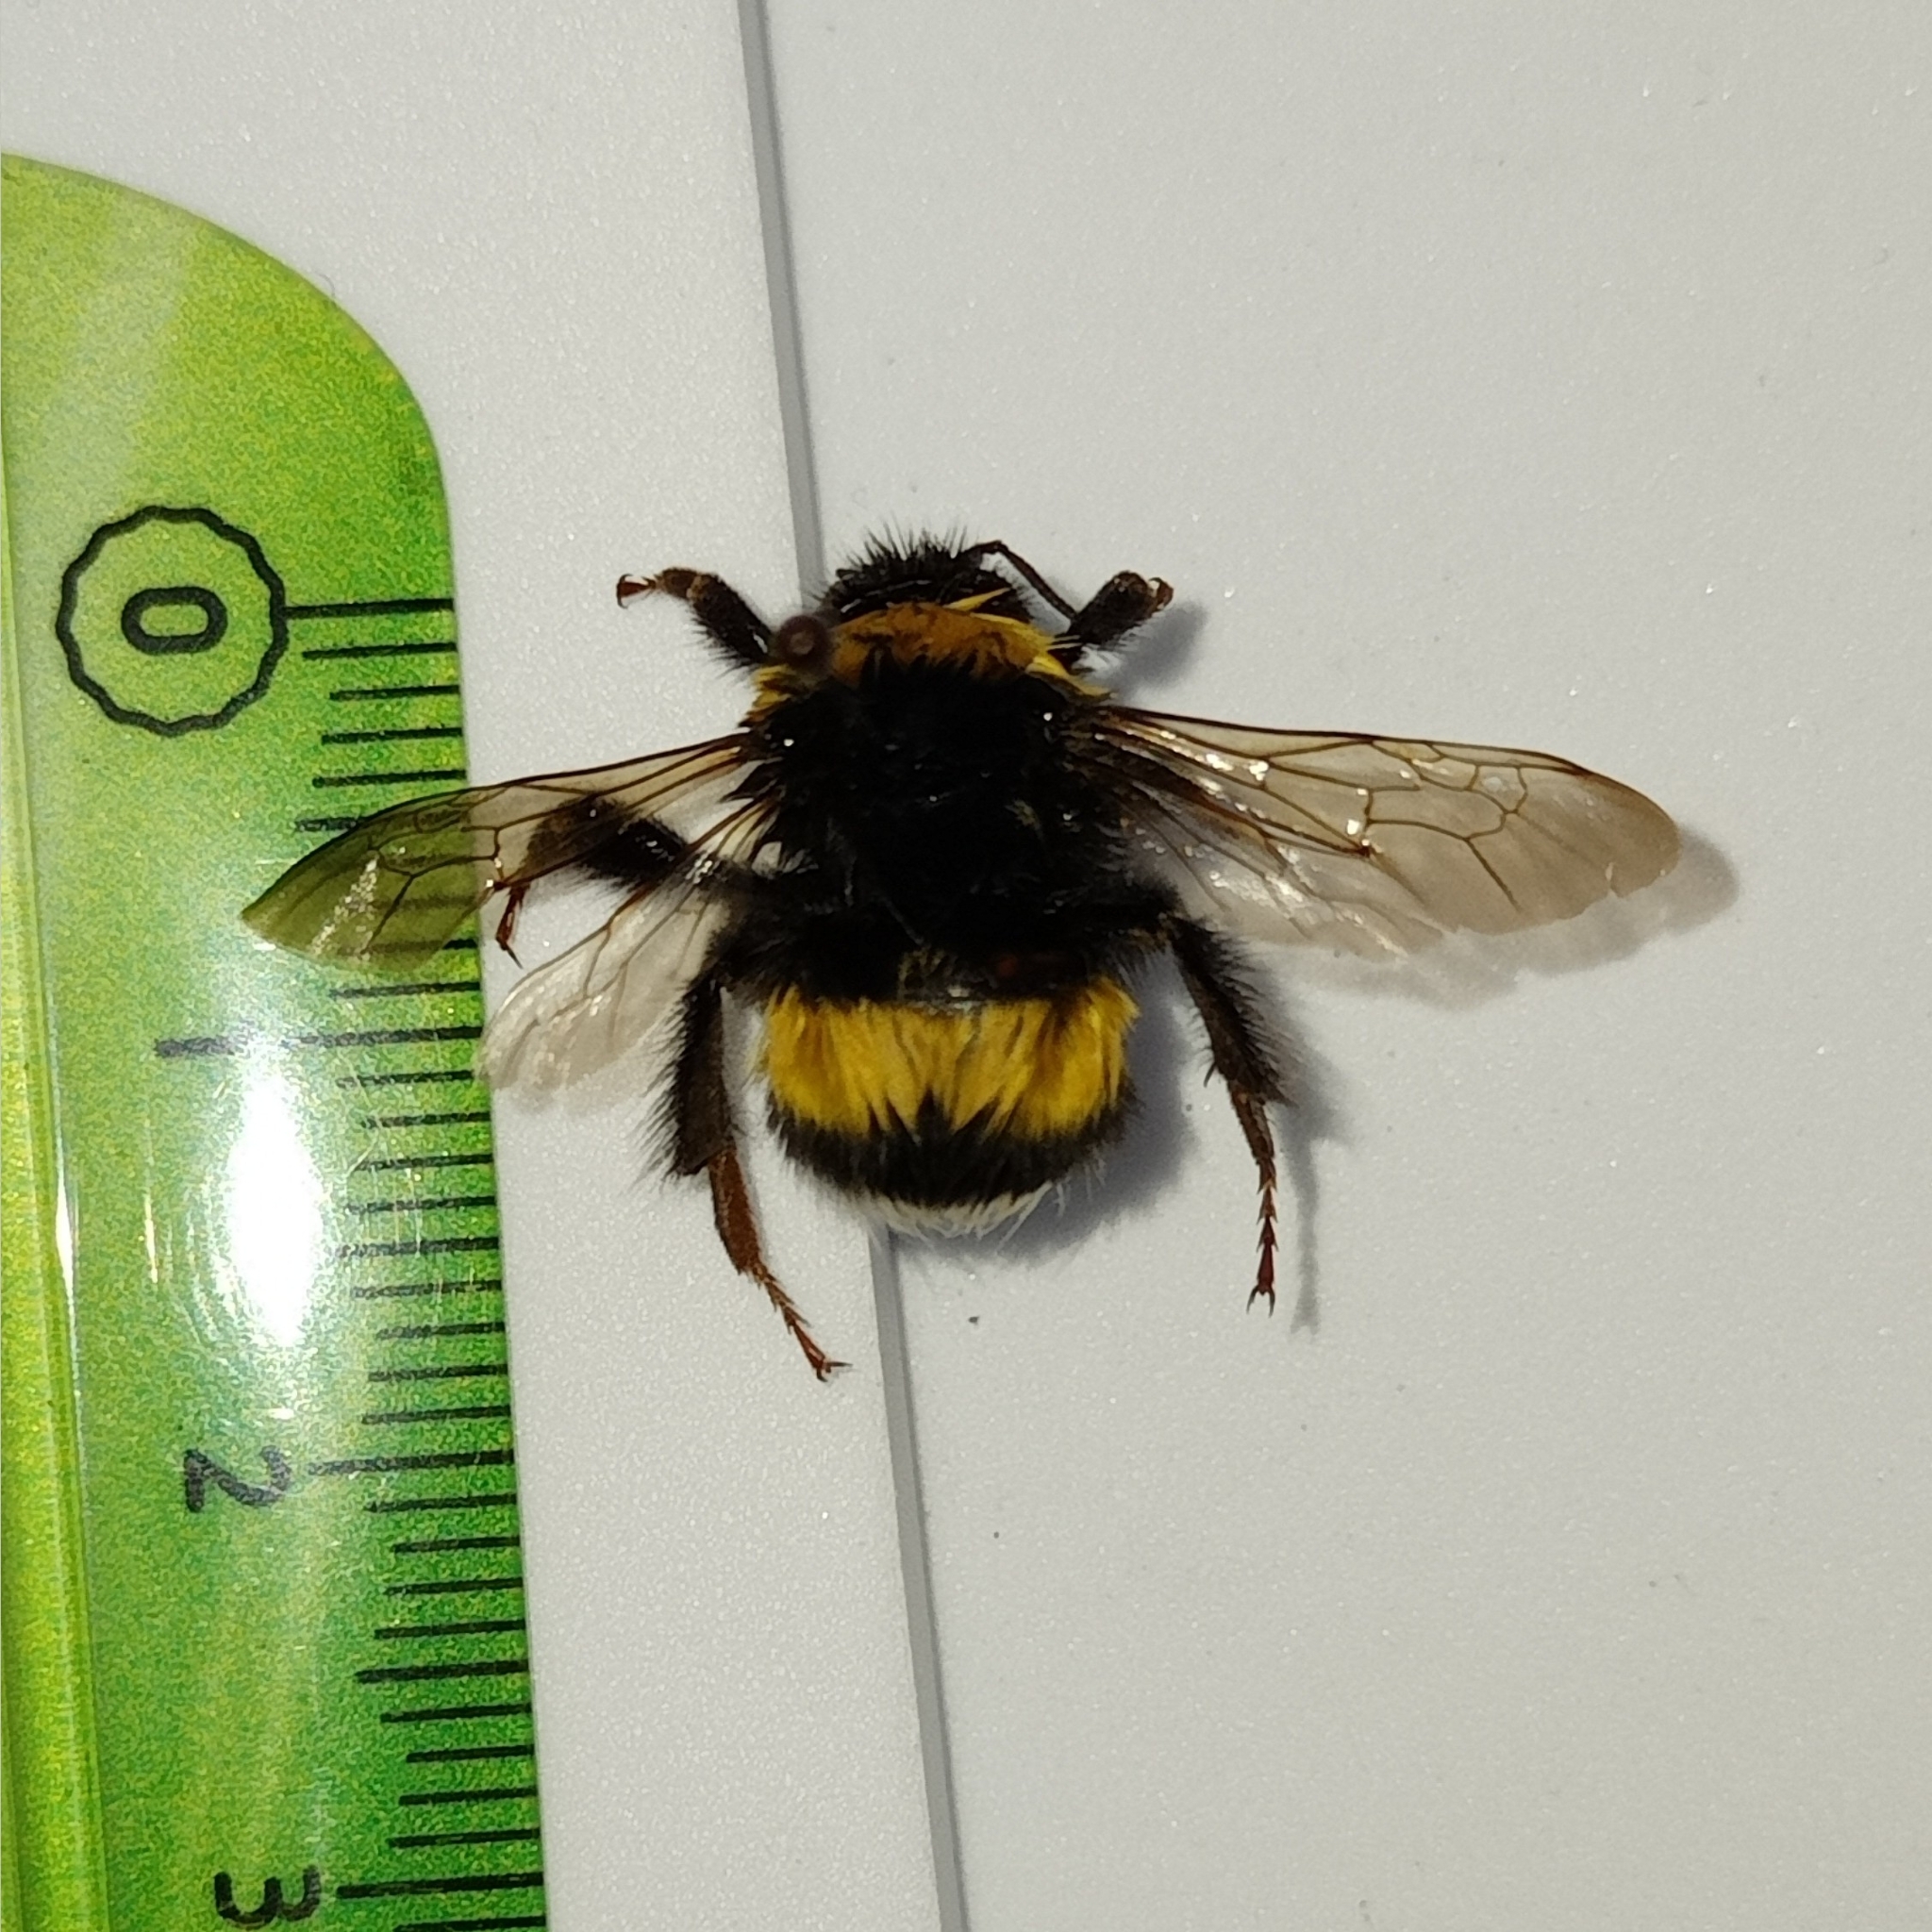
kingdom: Animalia
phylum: Arthropoda
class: Insecta
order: Hymenoptera
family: Apidae
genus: Bombus
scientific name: Bombus terrestris
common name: Buff-tailed bumblebee
